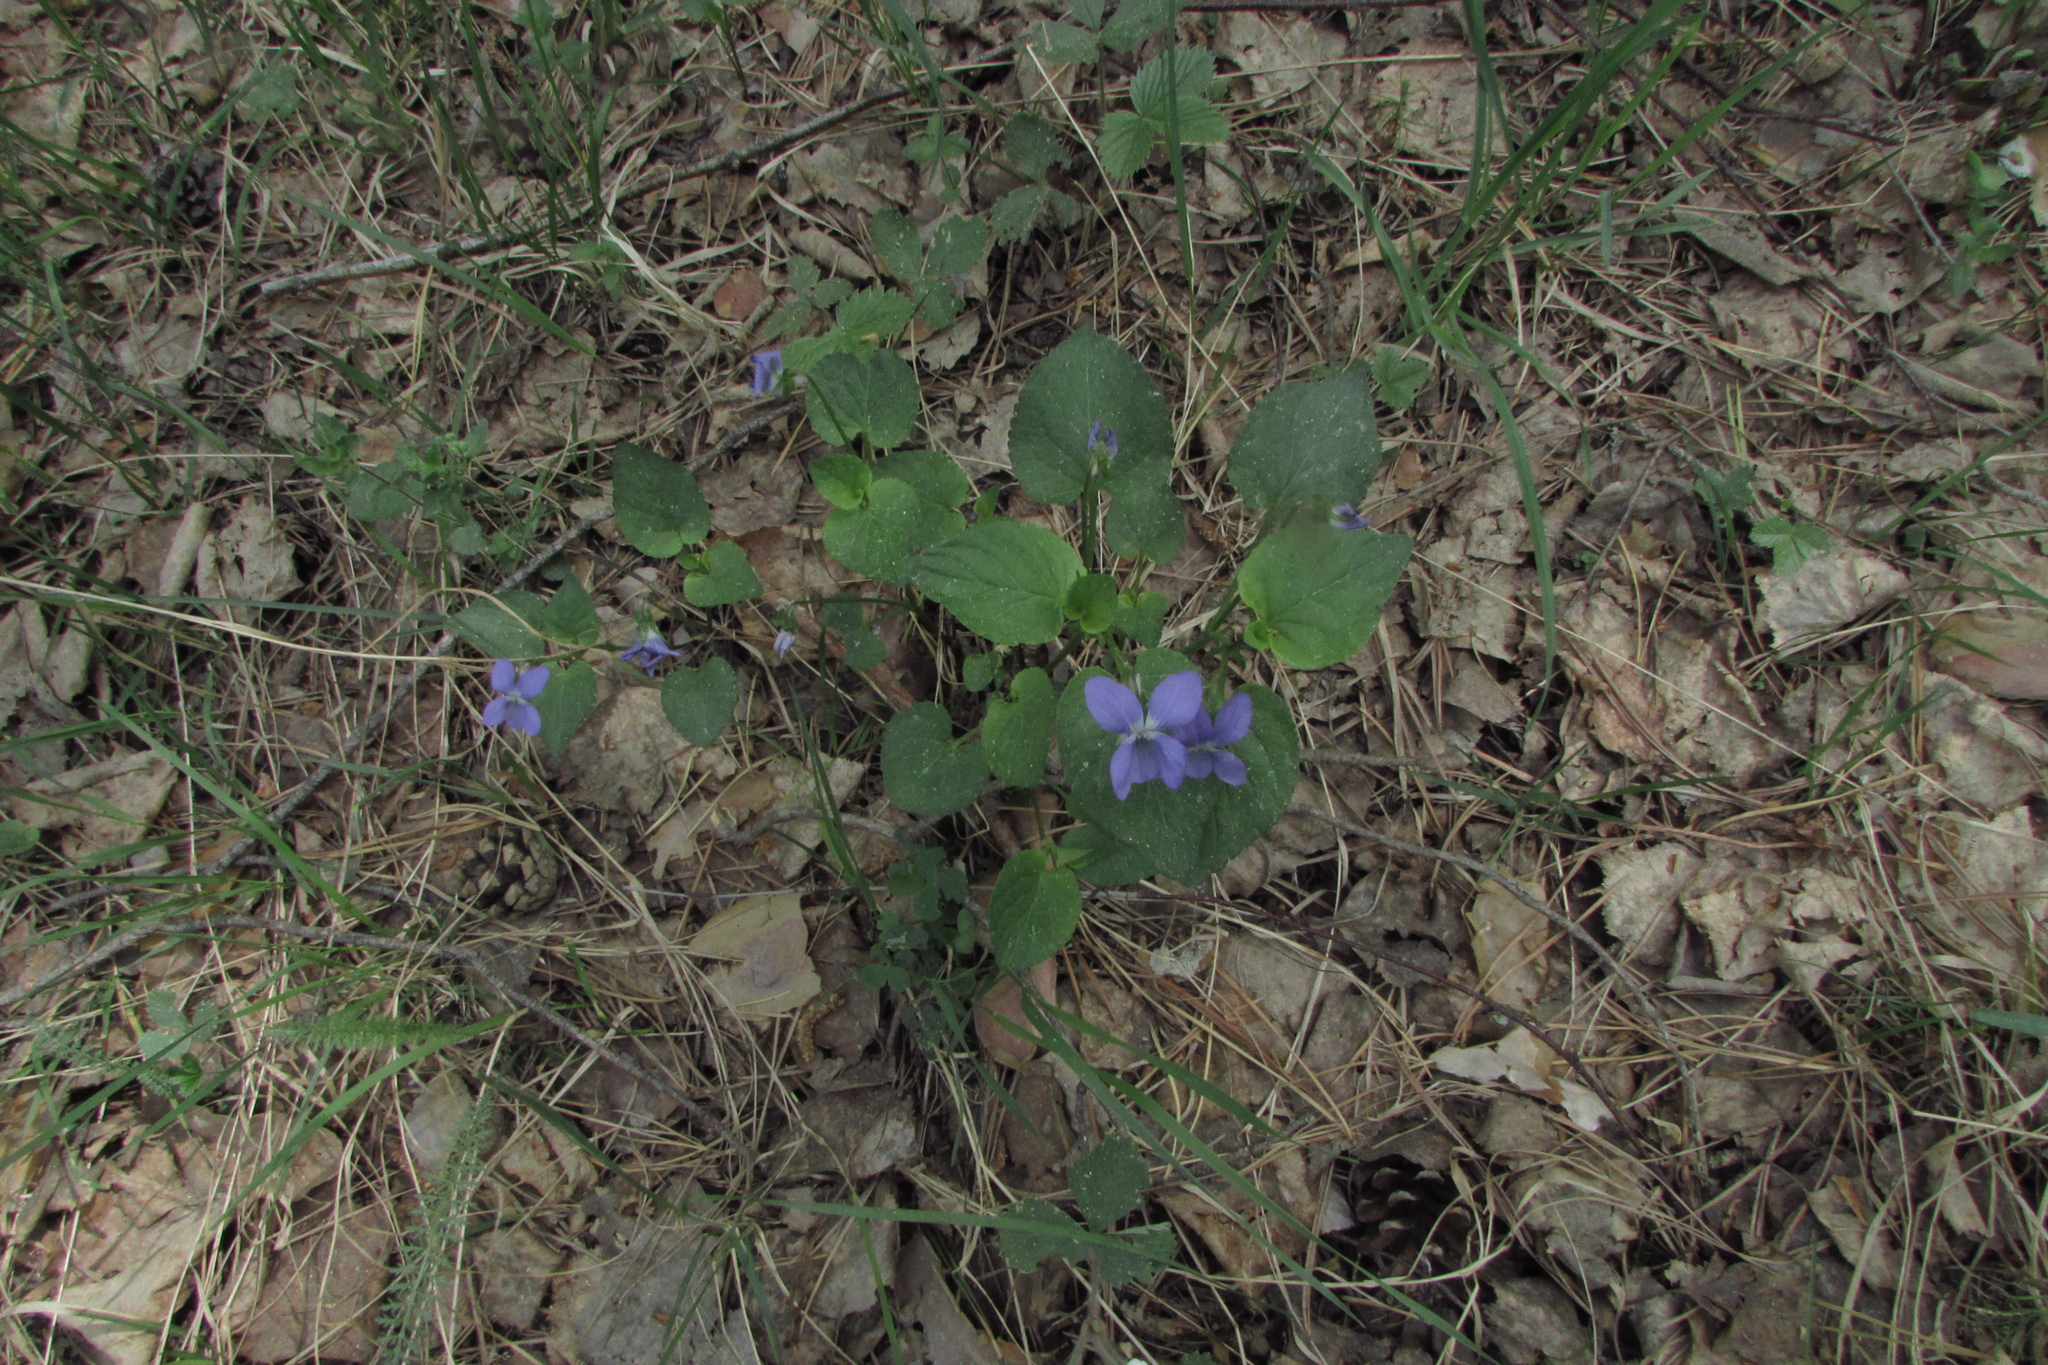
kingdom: Plantae
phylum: Tracheophyta
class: Magnoliopsida
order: Malpighiales
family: Violaceae
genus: Viola
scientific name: Viola riviniana
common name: Common dog-violet
